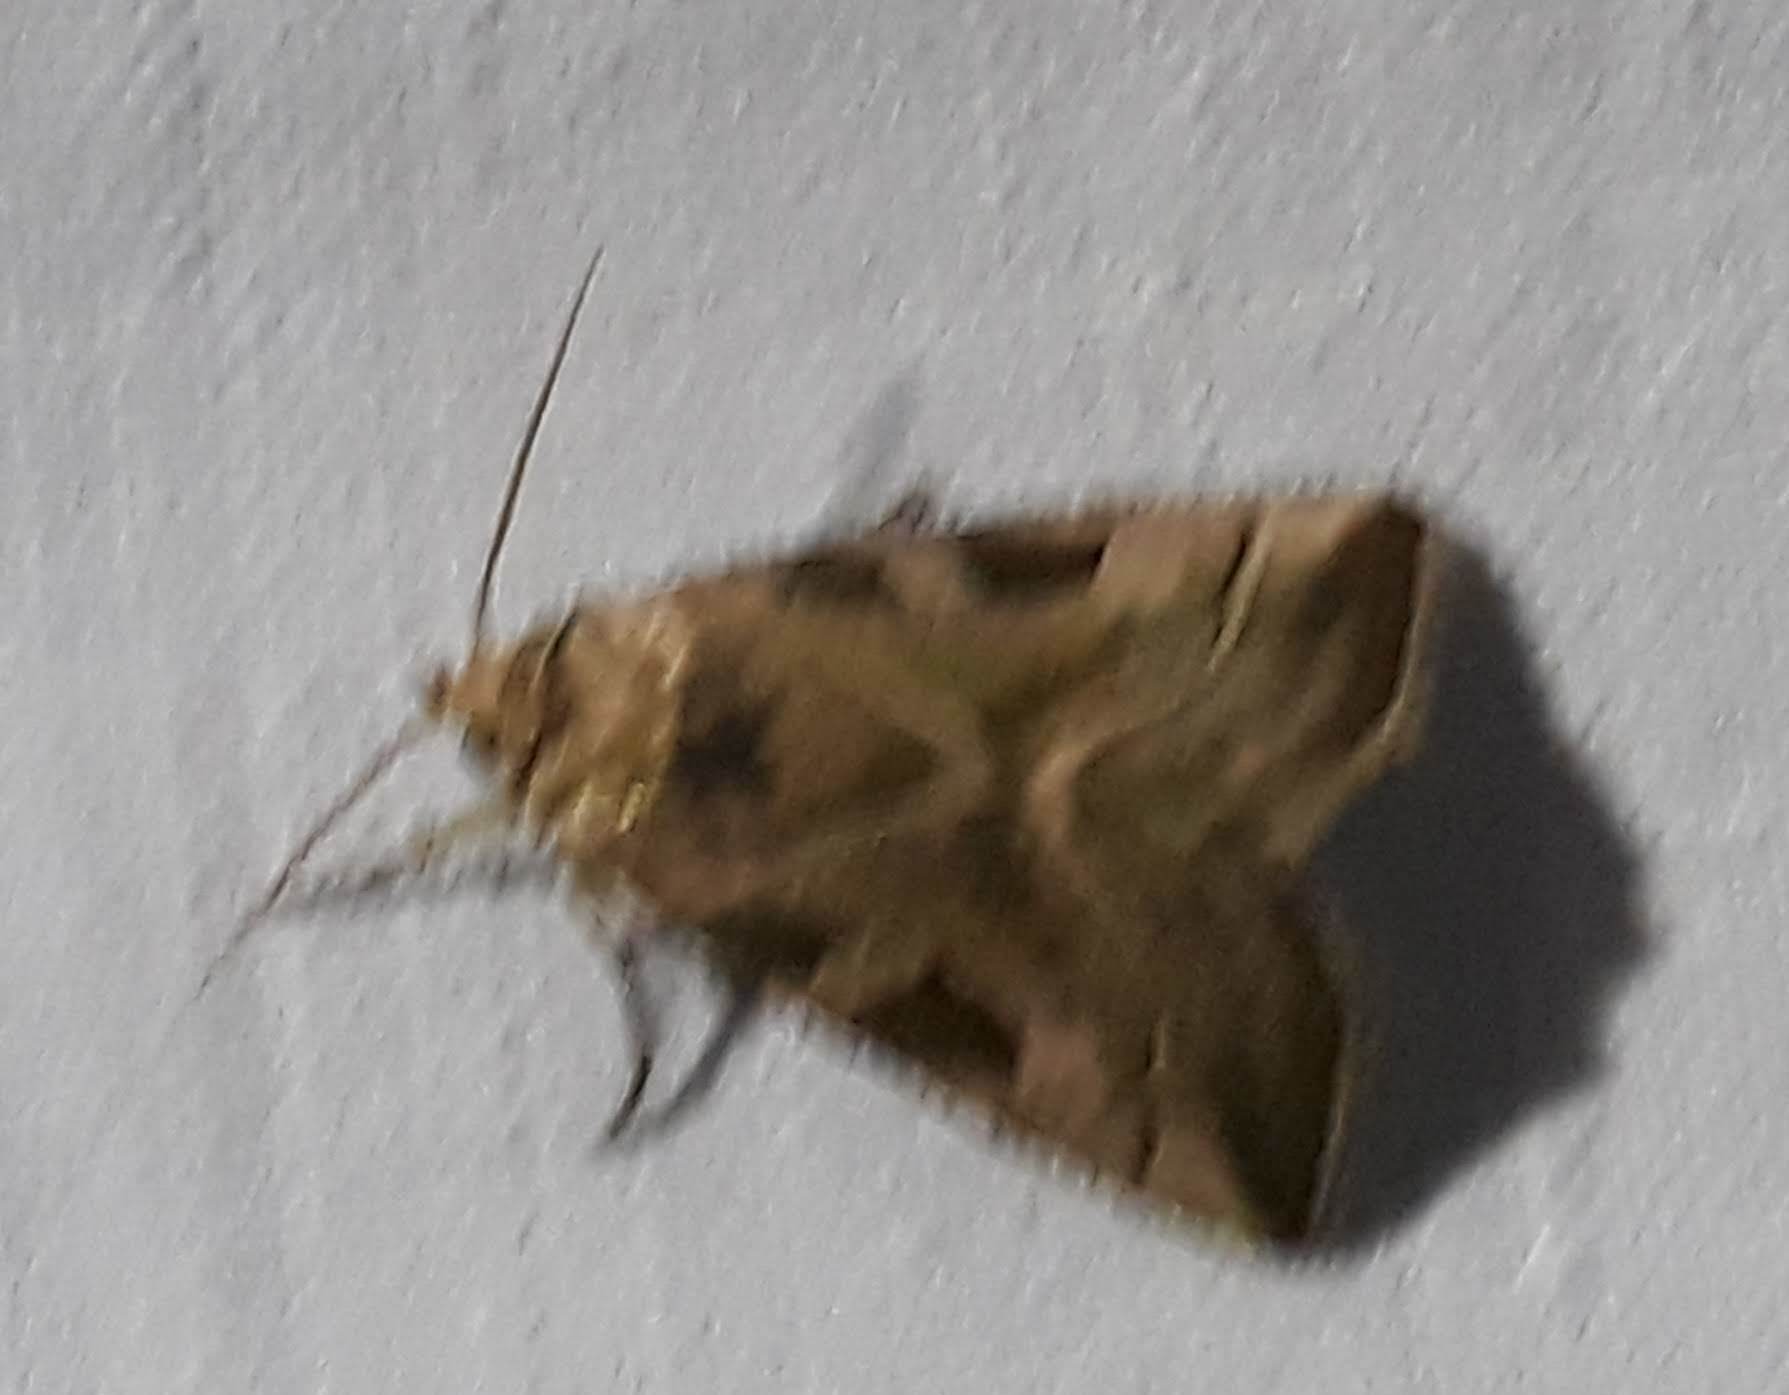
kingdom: Animalia
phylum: Arthropoda
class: Insecta
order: Lepidoptera
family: Noctuidae
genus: Eucarta
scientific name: Eucarta virgo
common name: Silvery gem
